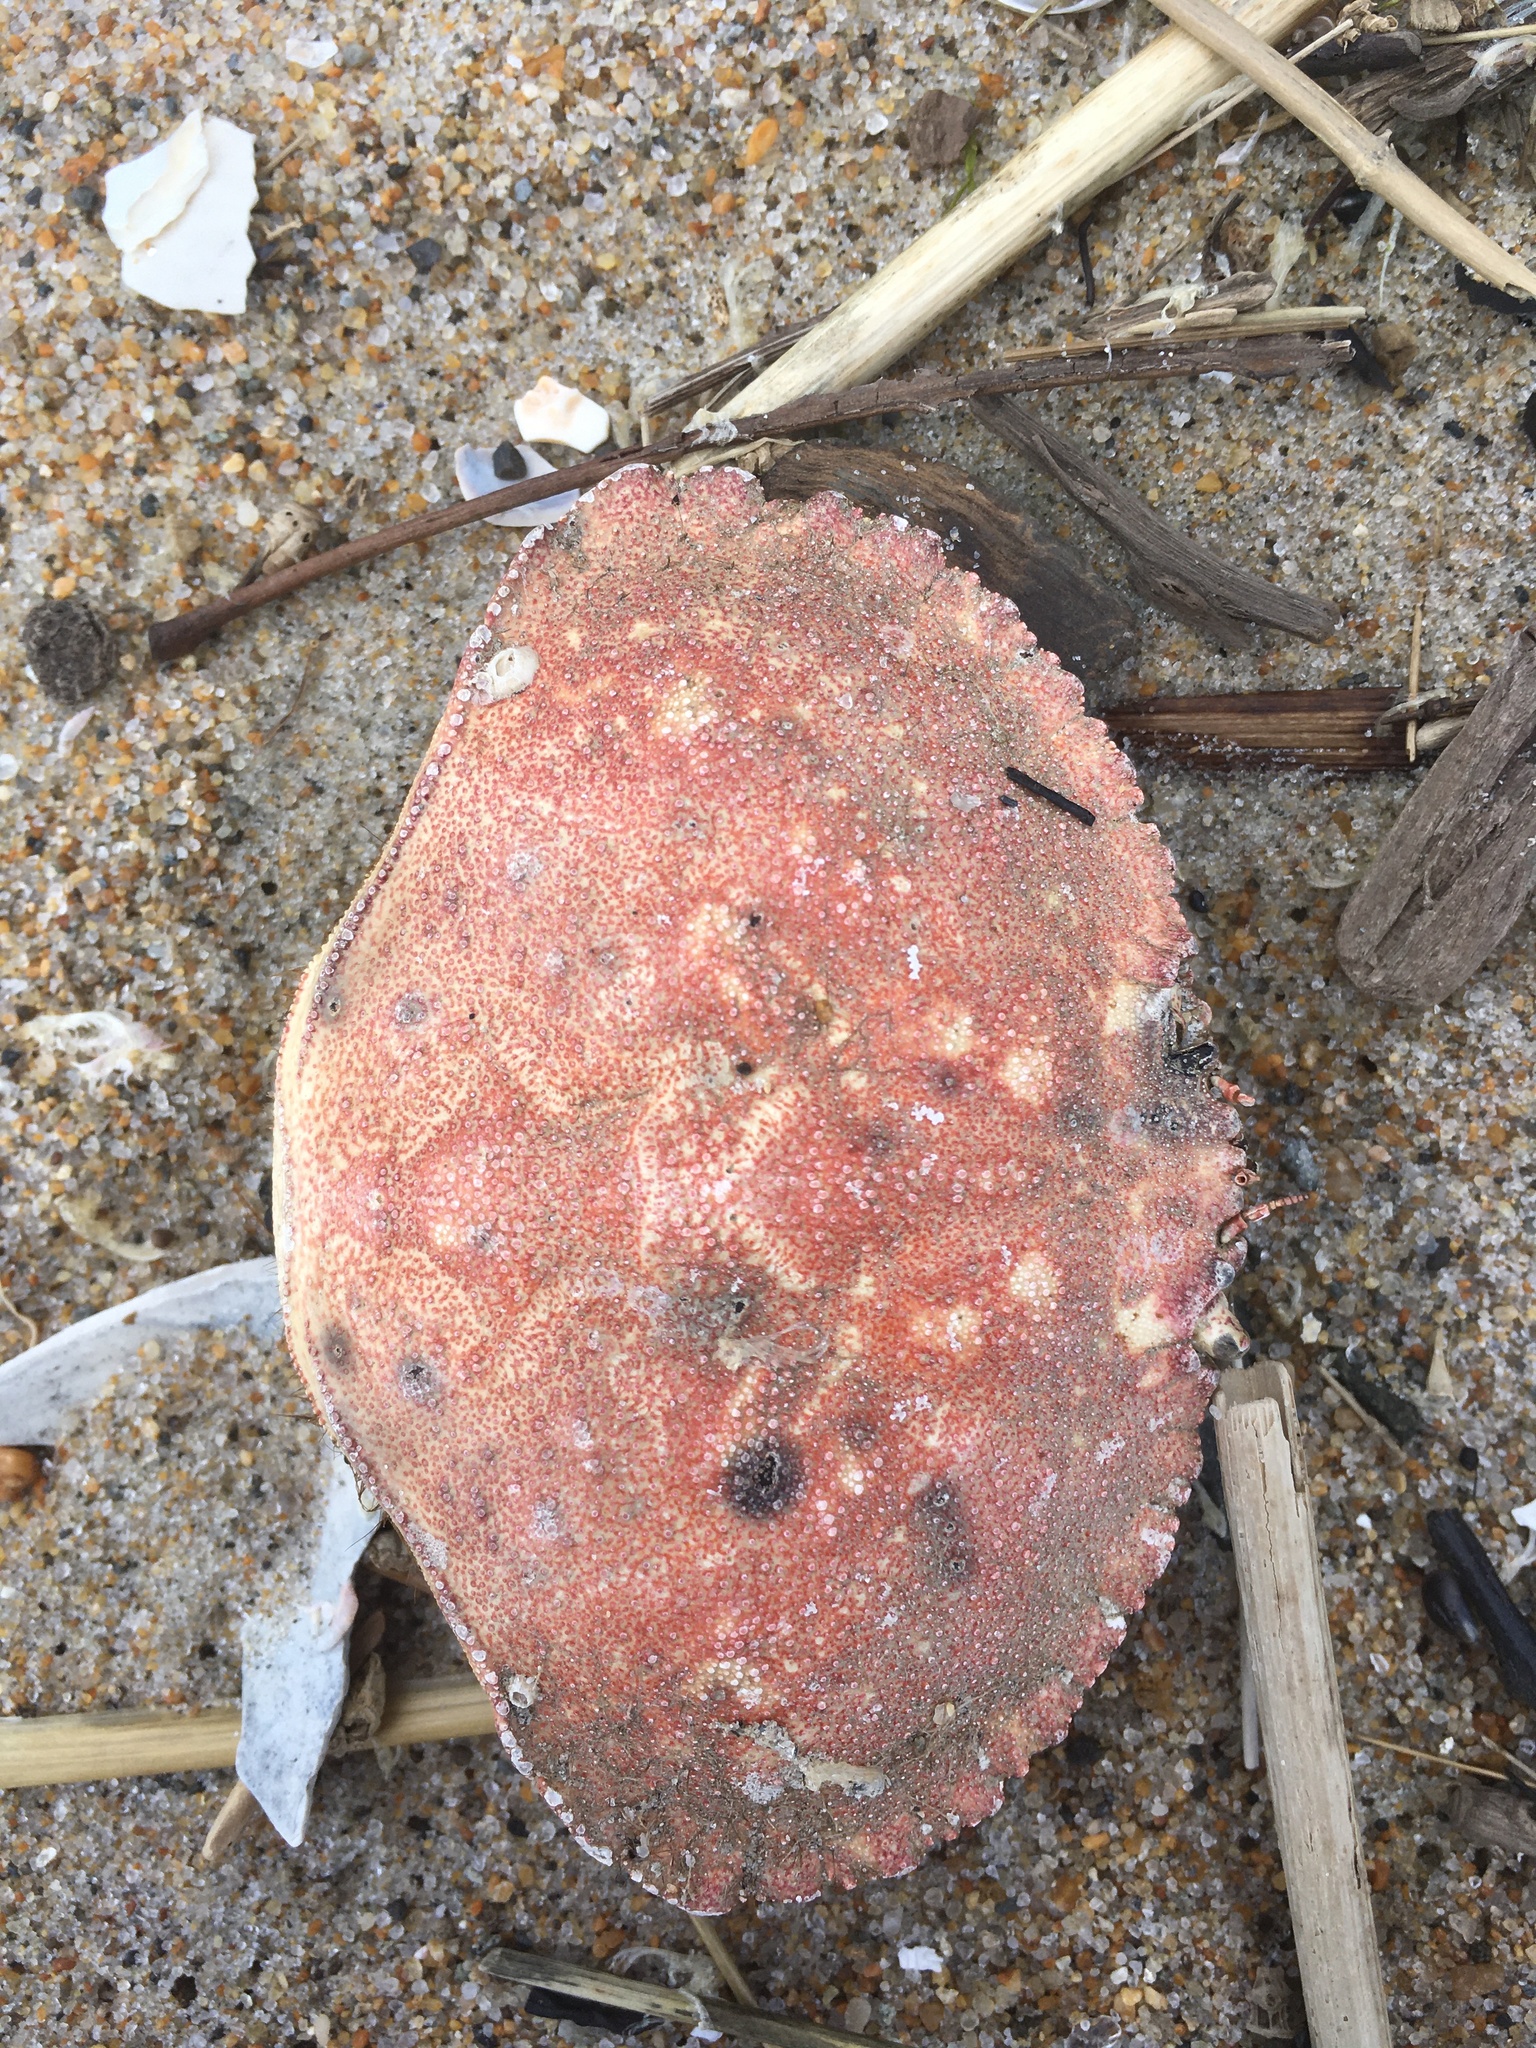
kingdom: Animalia
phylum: Arthropoda
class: Malacostraca
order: Decapoda
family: Cancridae
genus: Cancer
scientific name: Cancer borealis
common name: Jonah crab
